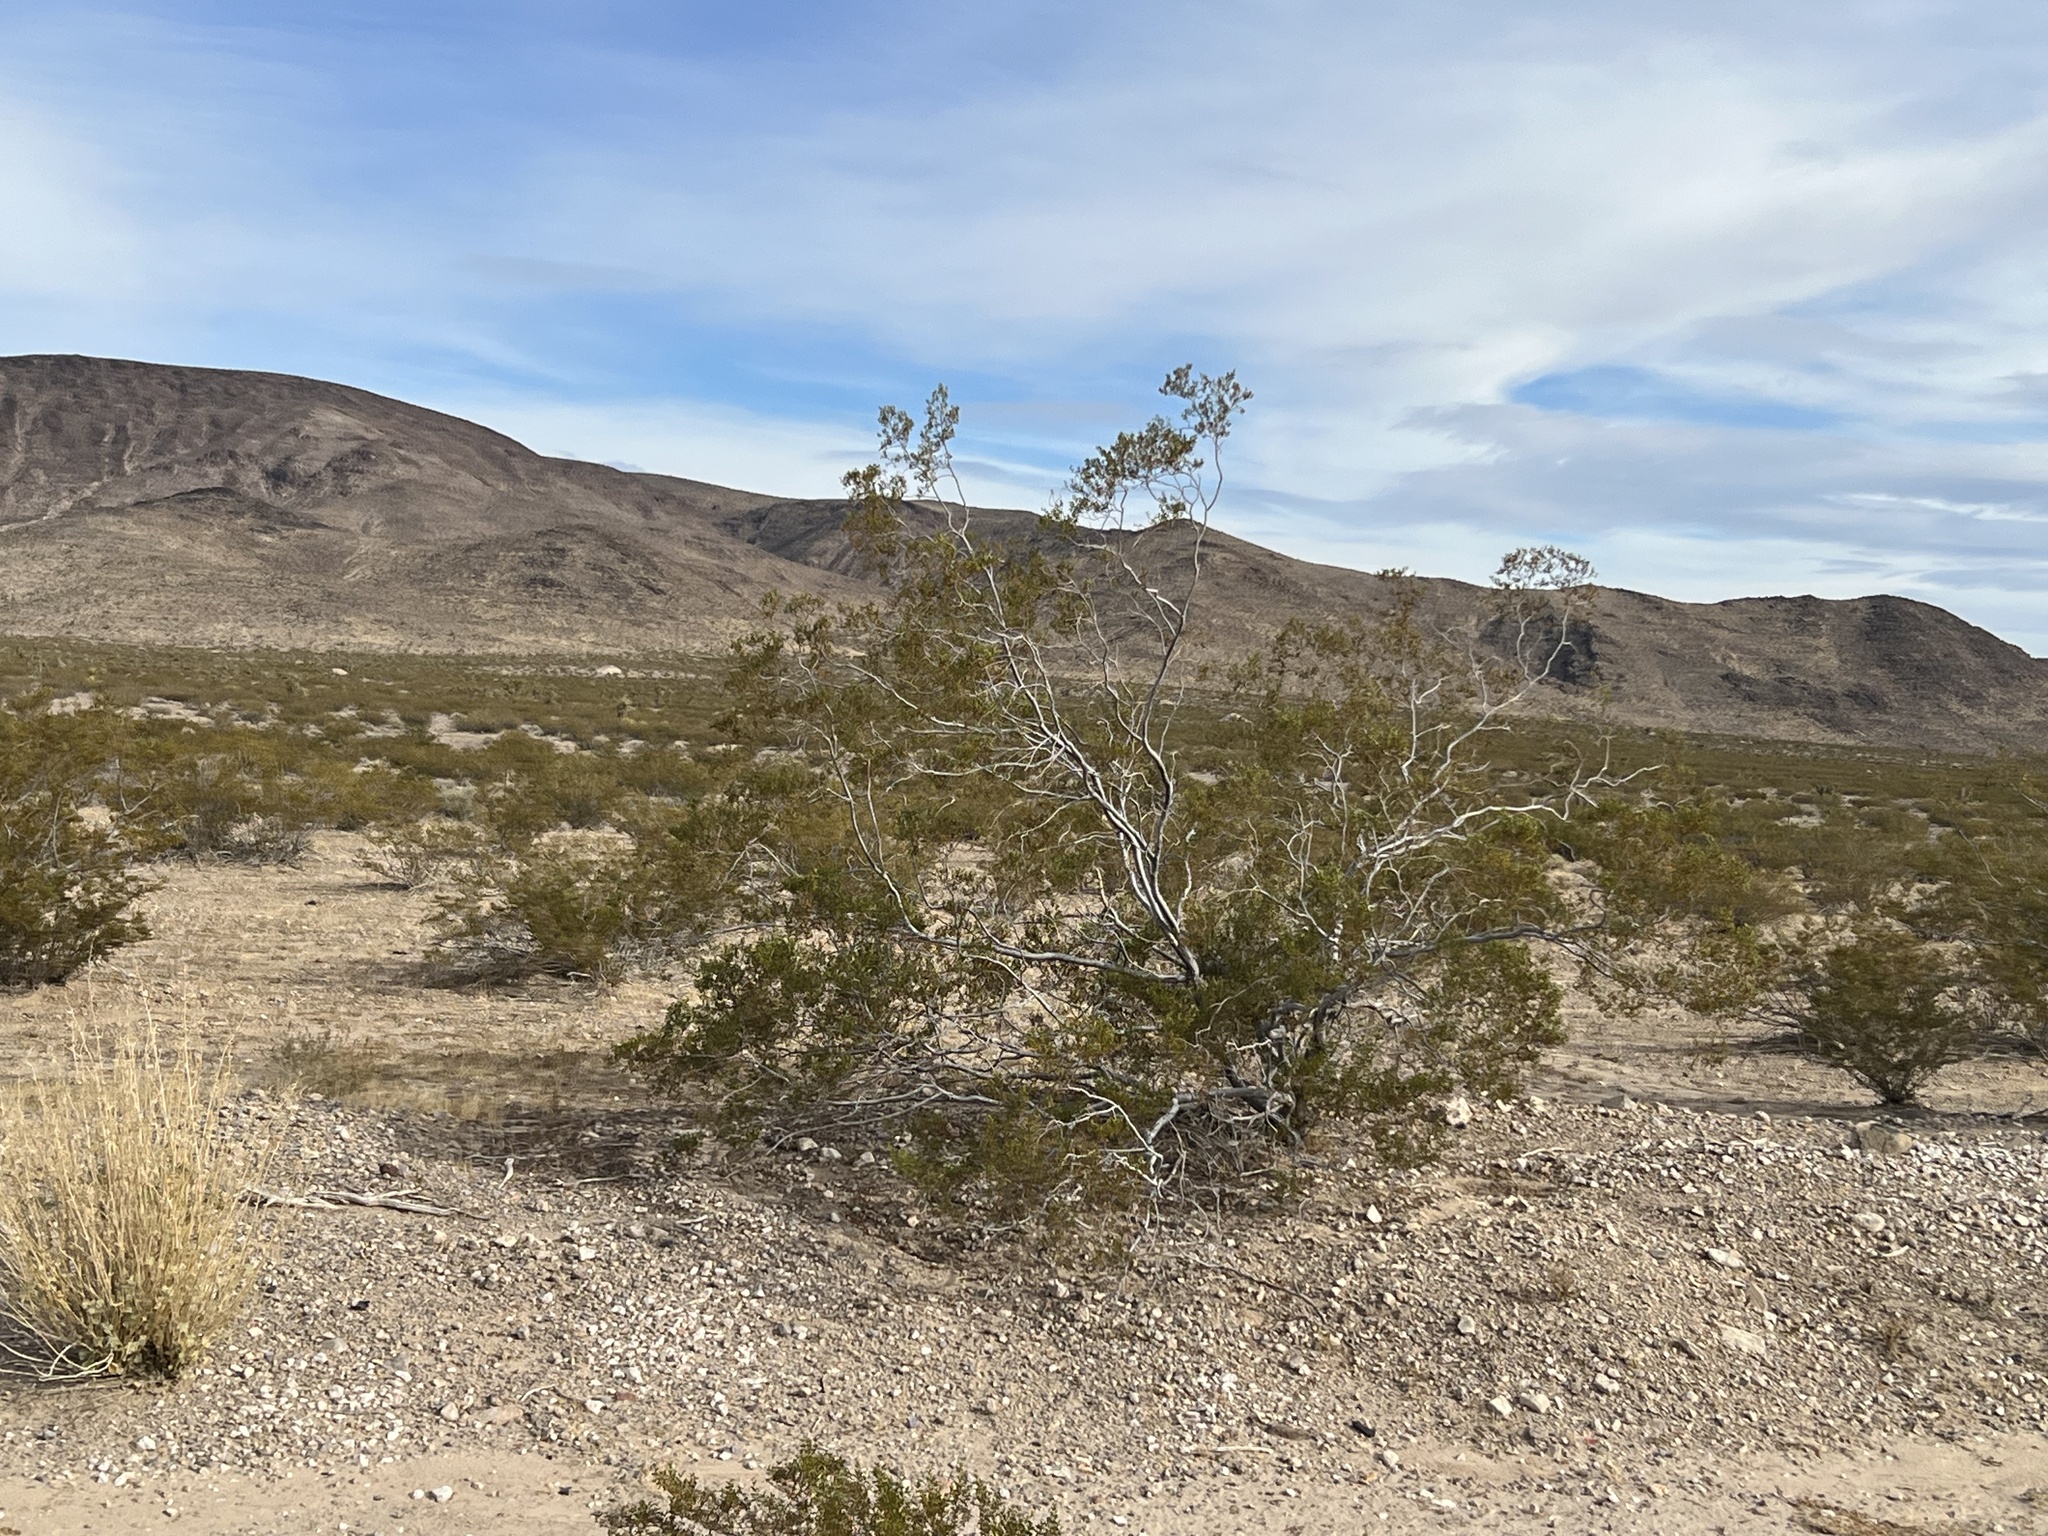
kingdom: Plantae
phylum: Tracheophyta
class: Magnoliopsida
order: Zygophyllales
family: Zygophyllaceae
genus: Larrea
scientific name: Larrea tridentata
